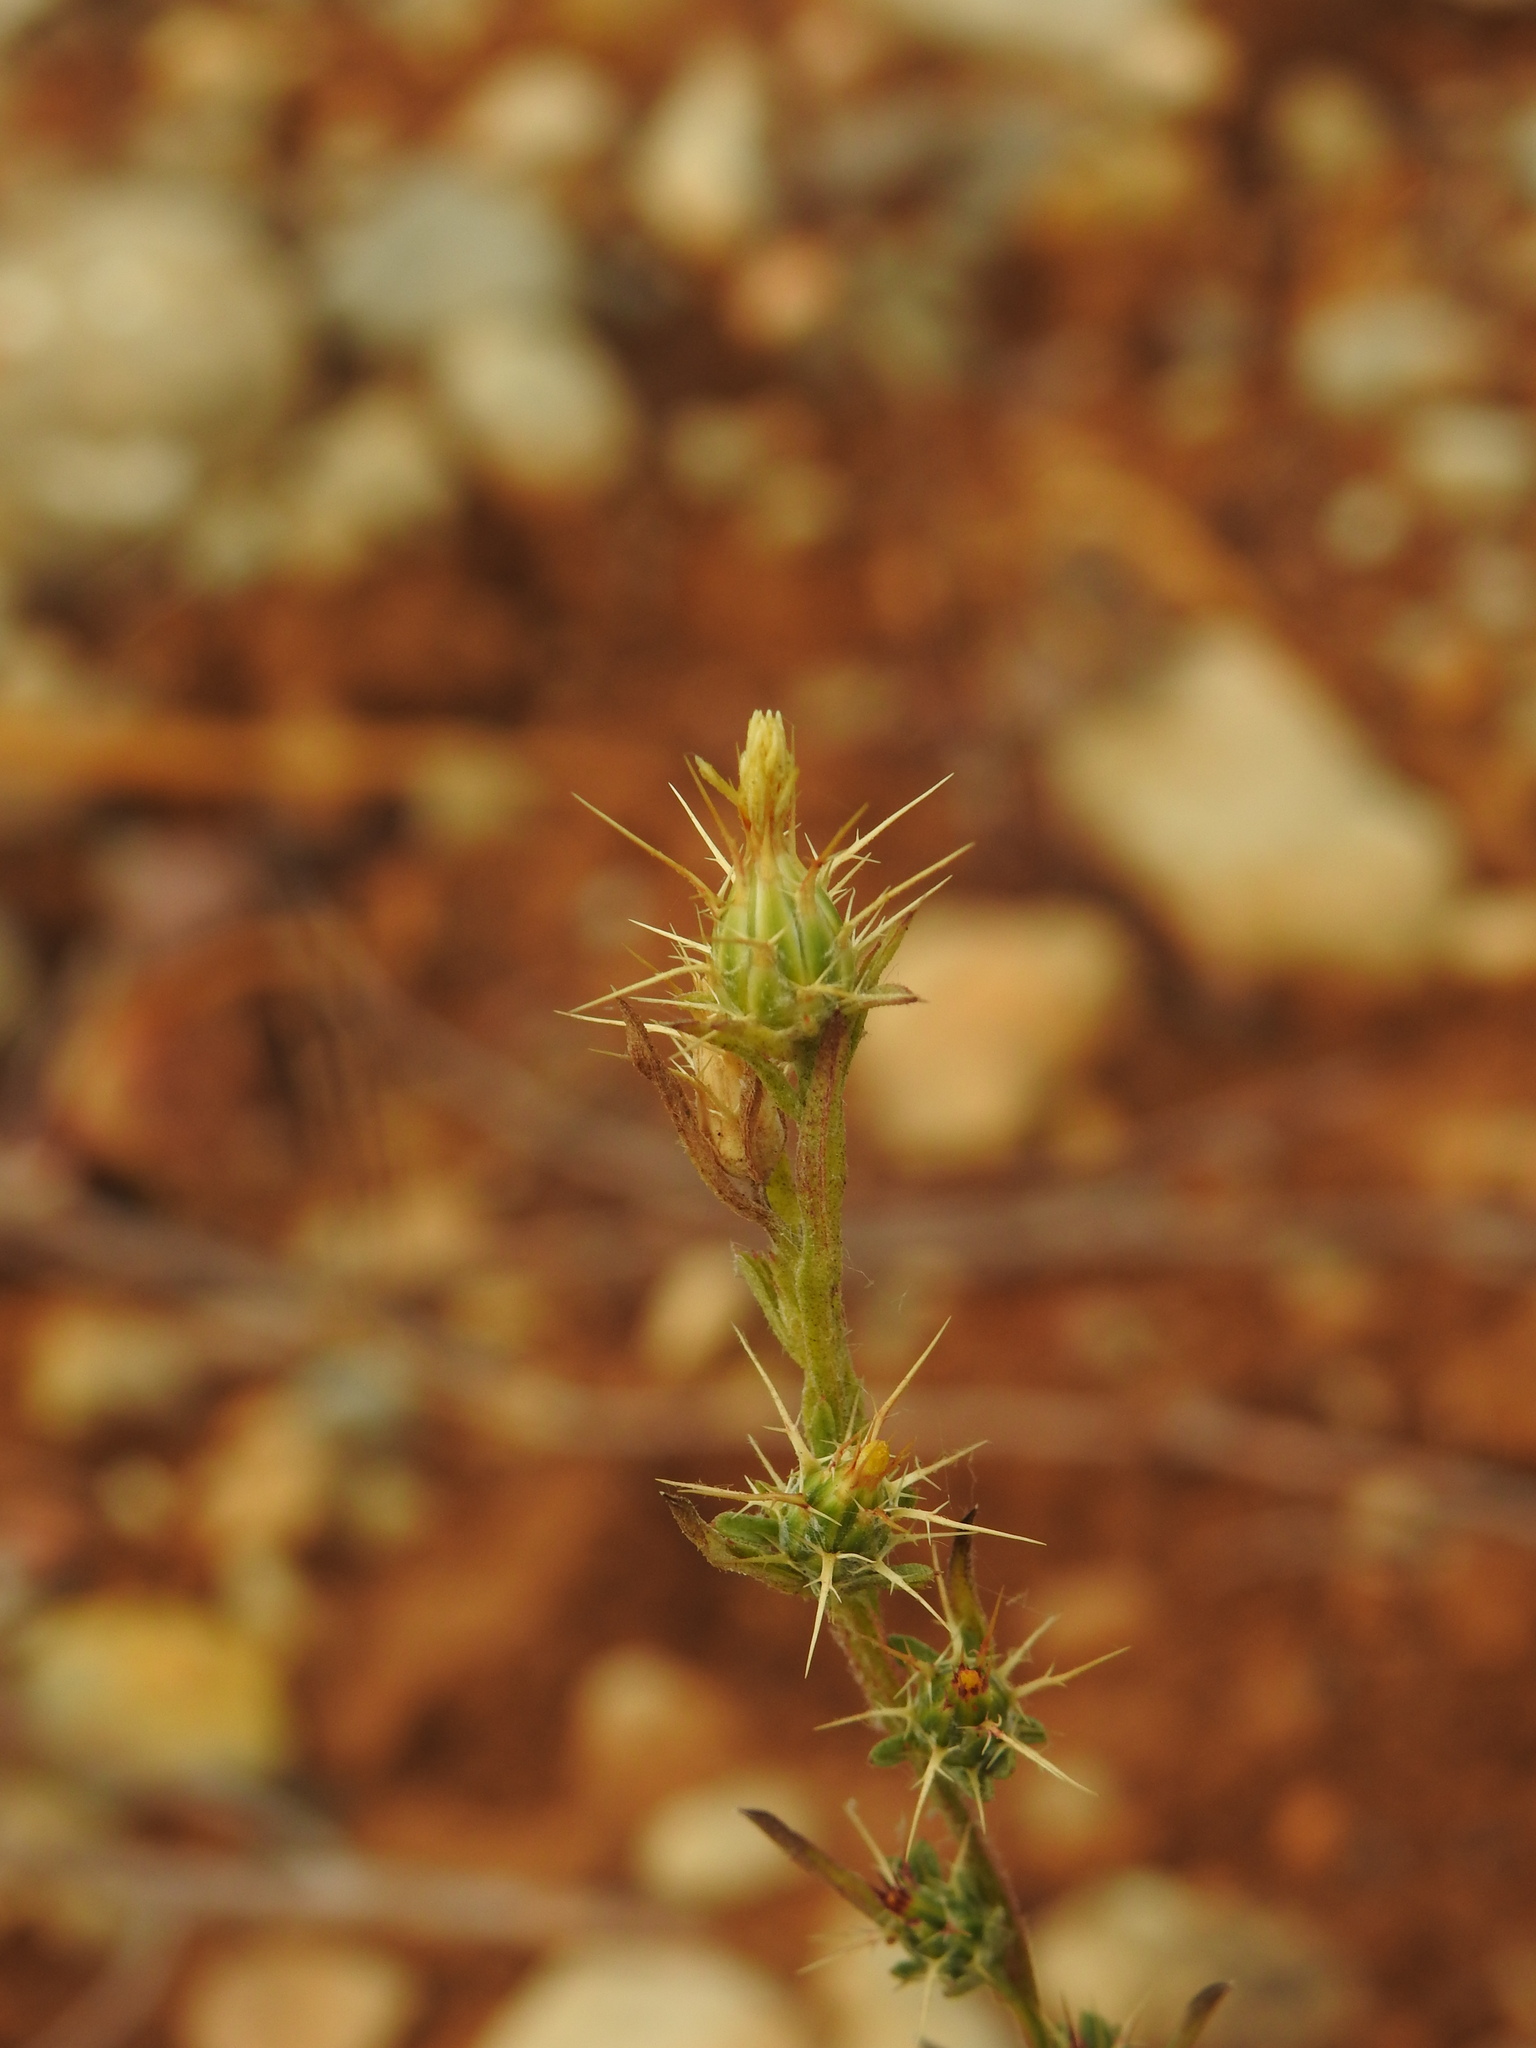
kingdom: Plantae
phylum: Tracheophyta
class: Magnoliopsida
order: Asterales
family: Asteraceae
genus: Centaurea
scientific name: Centaurea melitensis
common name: Maltese star-thistle
